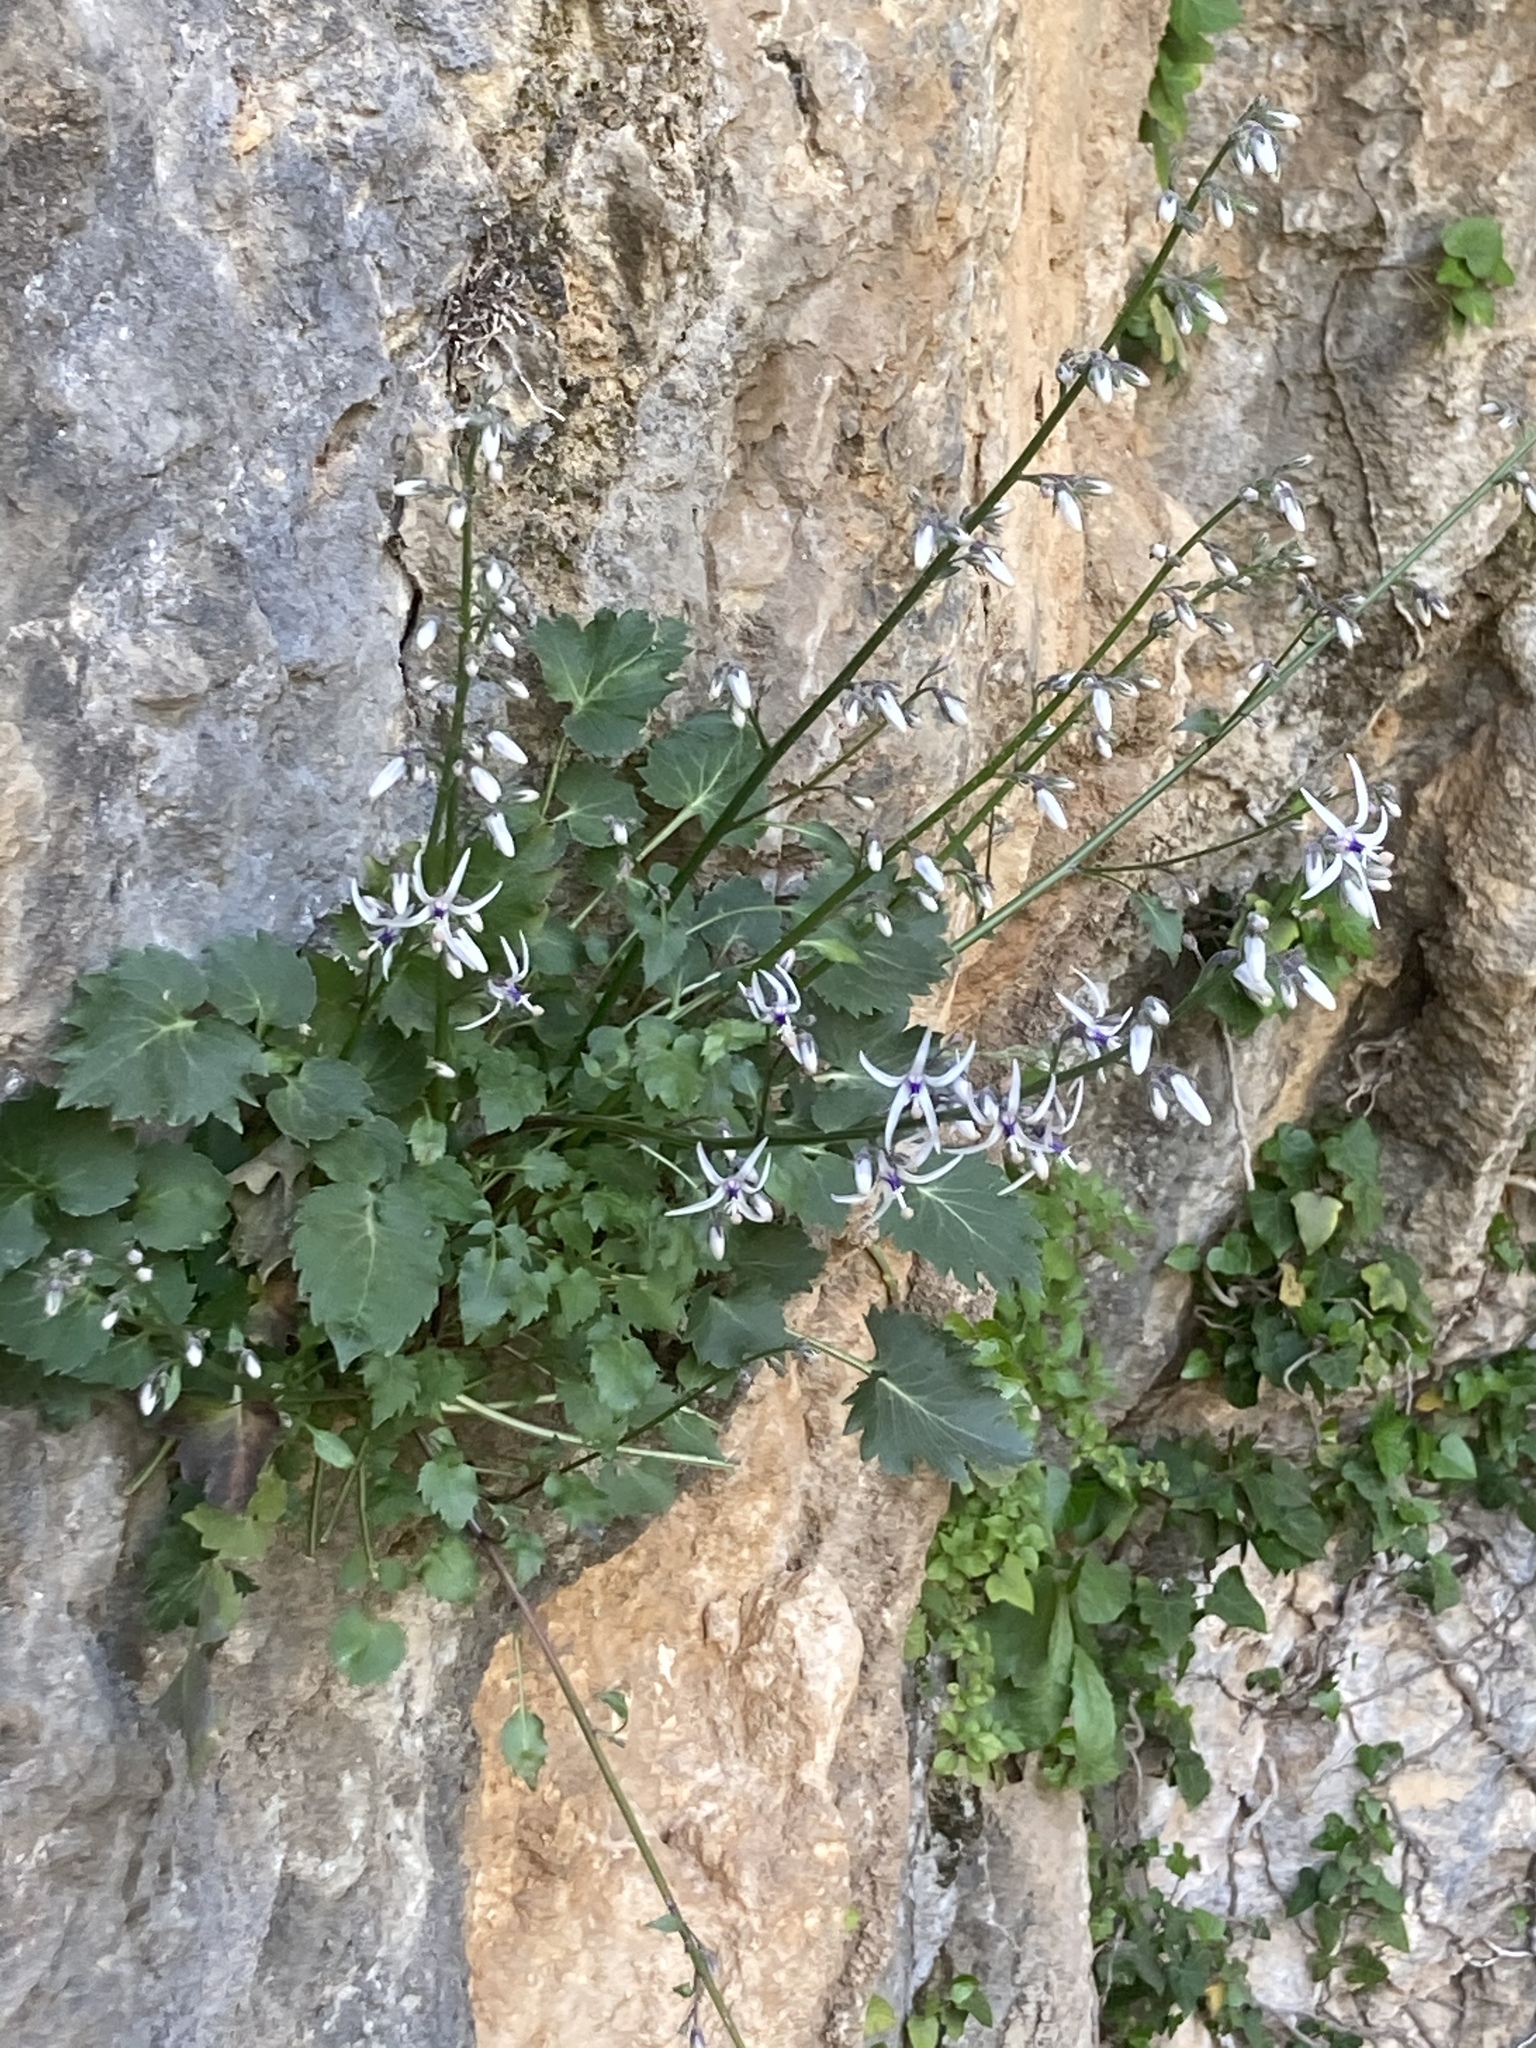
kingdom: Plantae
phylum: Tracheophyta
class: Magnoliopsida
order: Asterales
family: Campanulaceae
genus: Petromarula
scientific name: Petromarula pinnata
